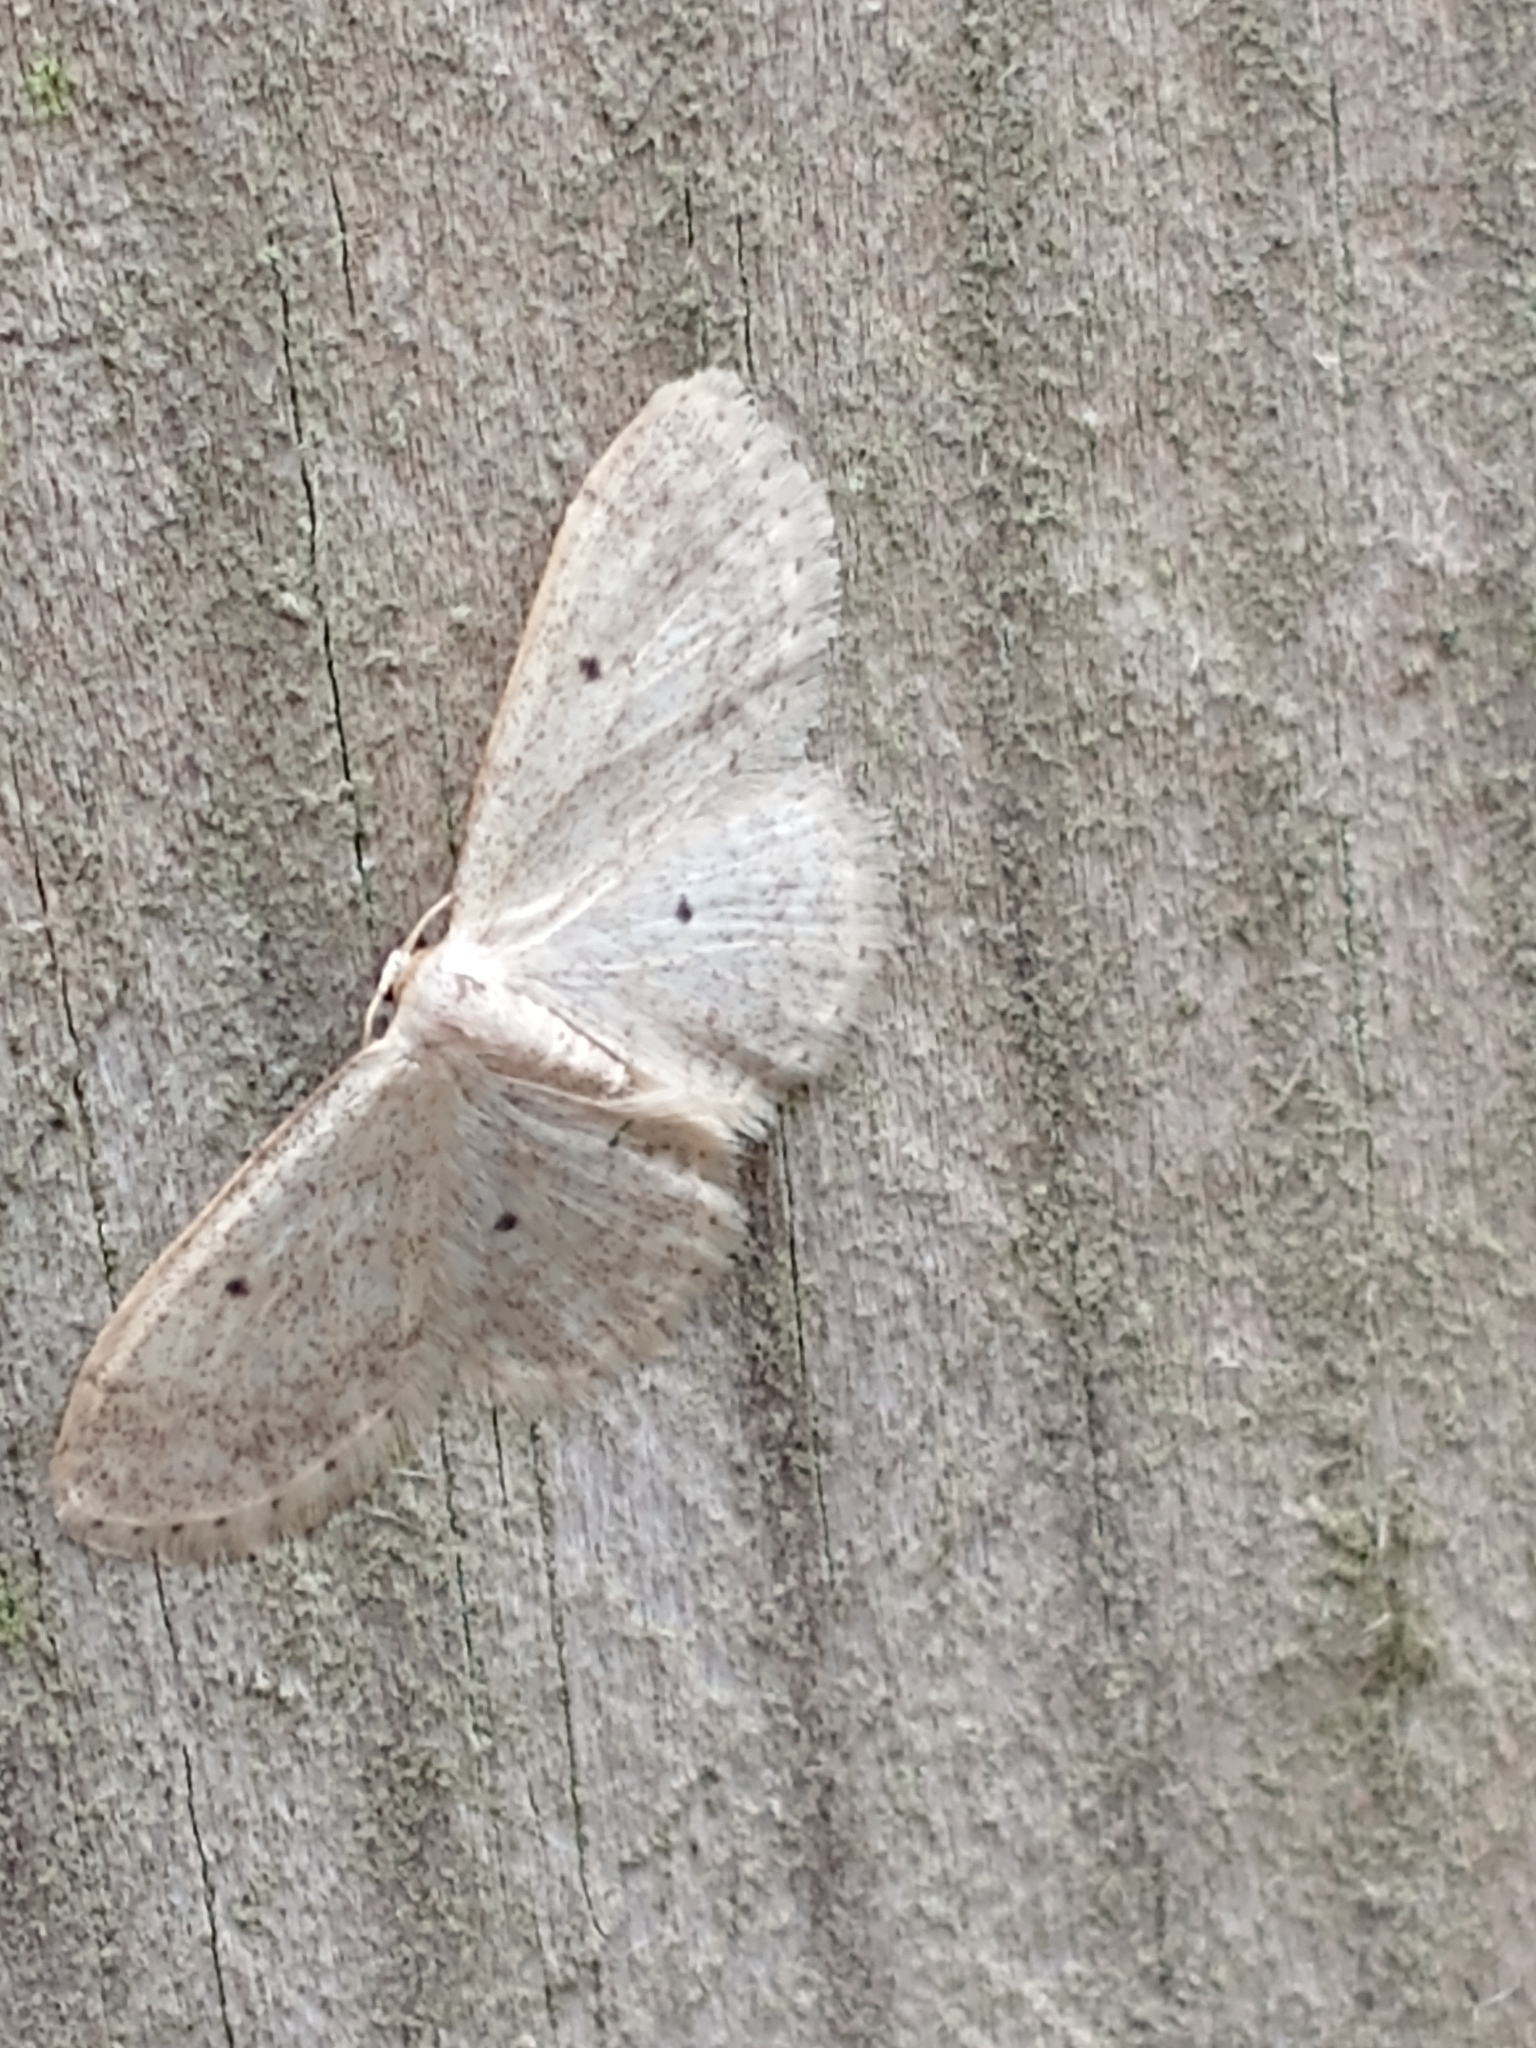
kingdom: Animalia
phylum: Arthropoda
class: Insecta
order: Lepidoptera
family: Geometridae
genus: Idaea
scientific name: Idaea biselata
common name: Small fan-footed wave
